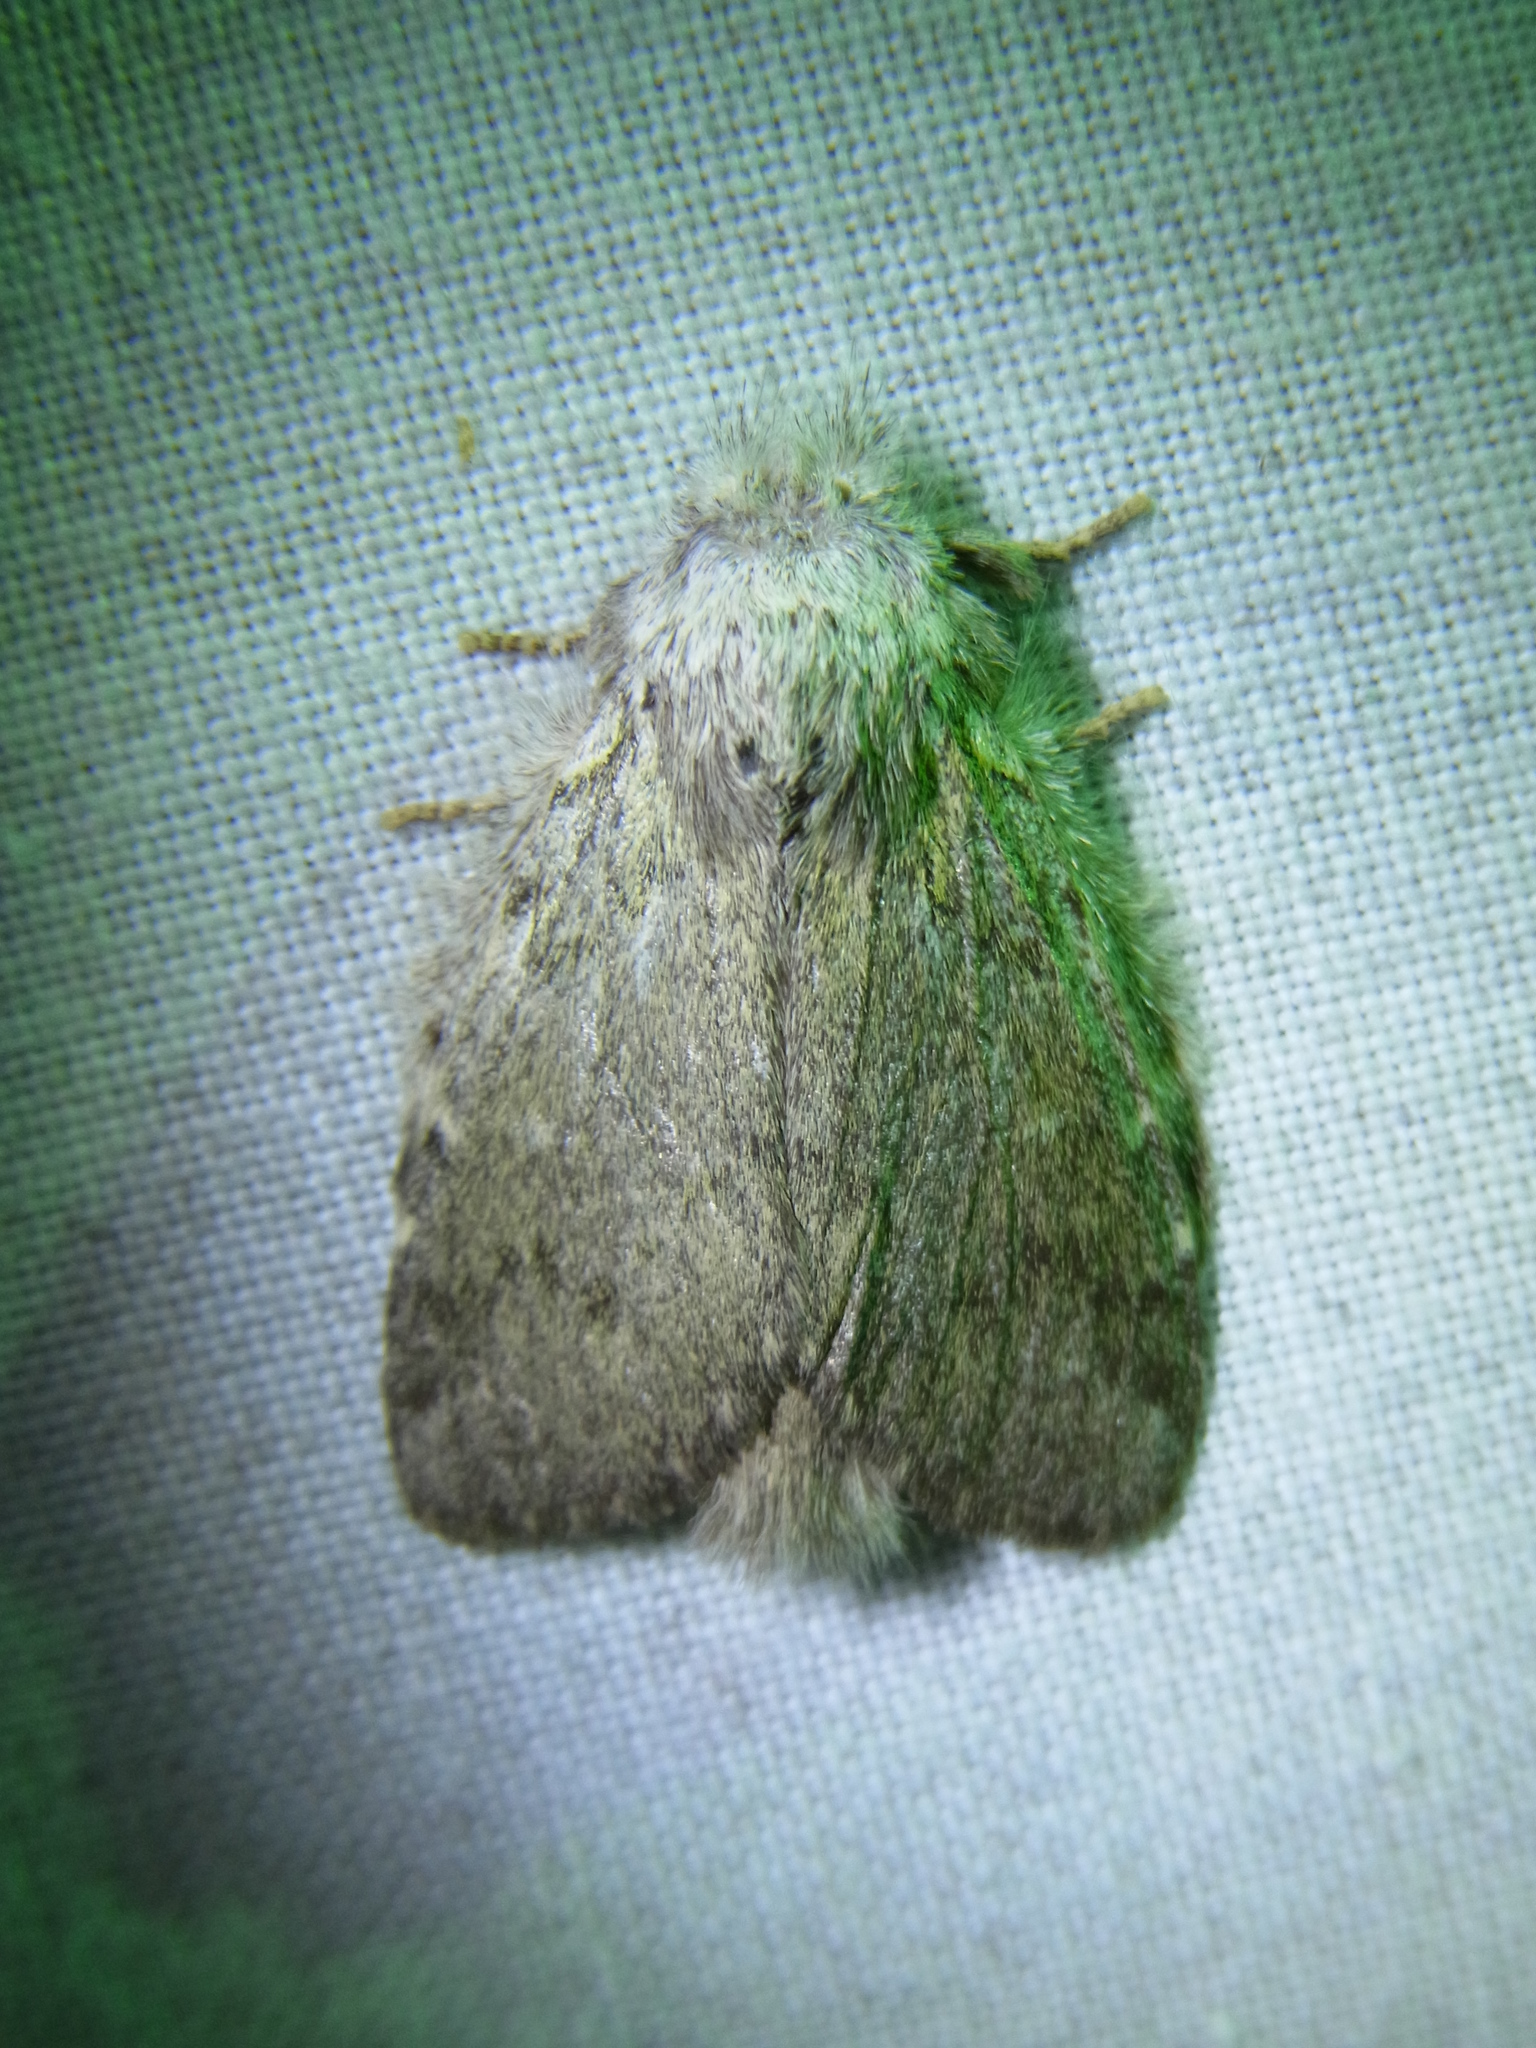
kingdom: Animalia
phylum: Arthropoda
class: Insecta
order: Lepidoptera
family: Notodontidae
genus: Syntypistis
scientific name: Syntypistis
